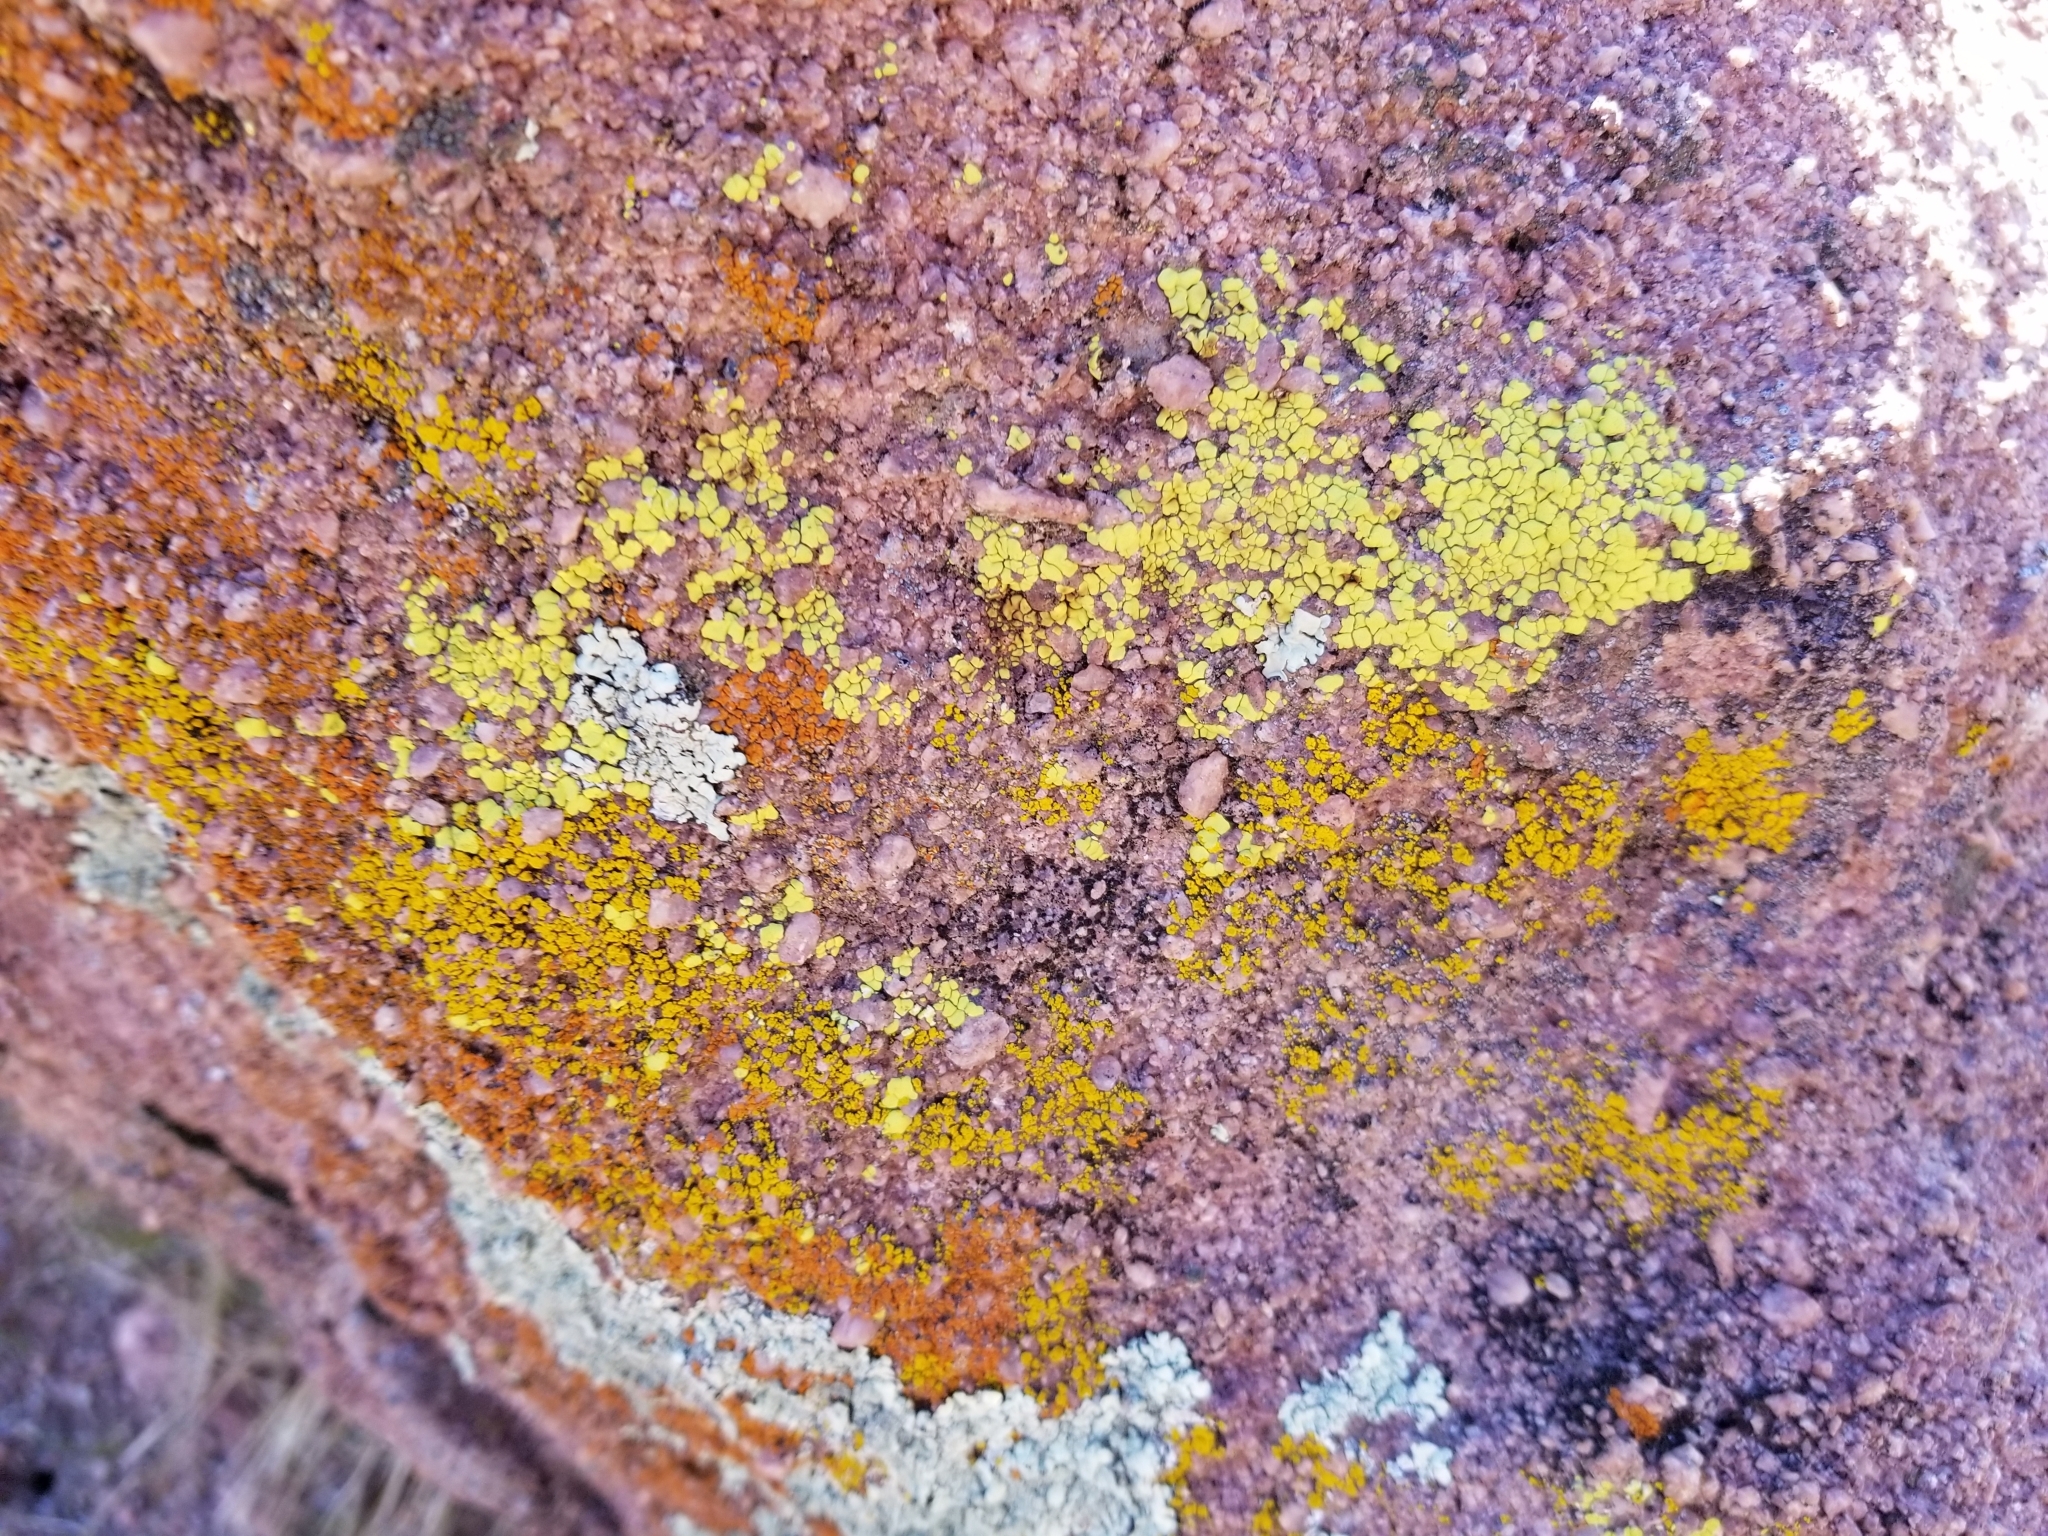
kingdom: Fungi
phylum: Ascomycota
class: Lecanoromycetes
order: Acarosporales
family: Acarosporaceae
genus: Acarospora
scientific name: Acarospora socialis
